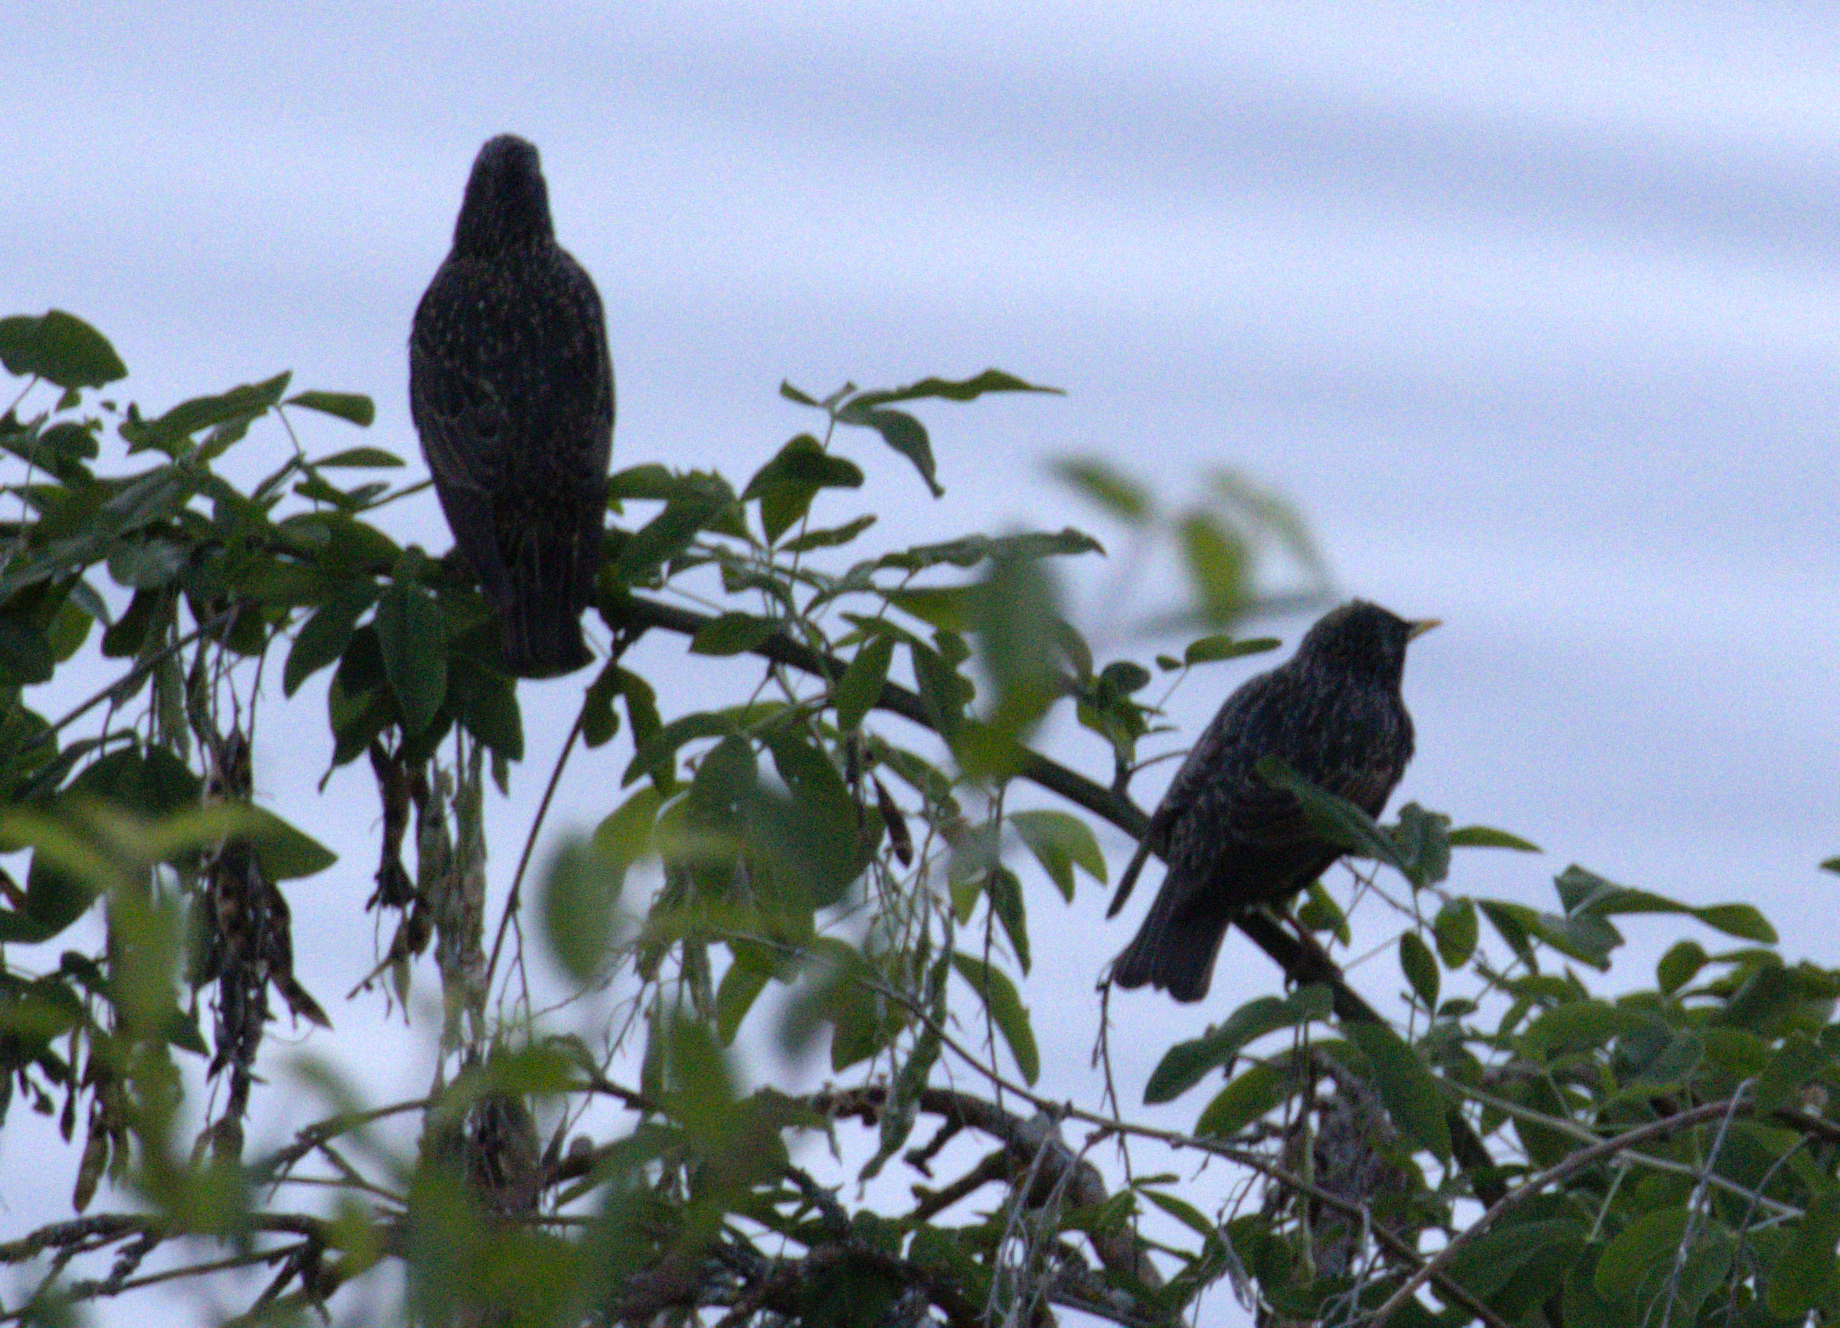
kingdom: Animalia
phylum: Chordata
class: Aves
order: Passeriformes
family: Sturnidae
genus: Sturnus
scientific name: Sturnus vulgaris
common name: Common starling
